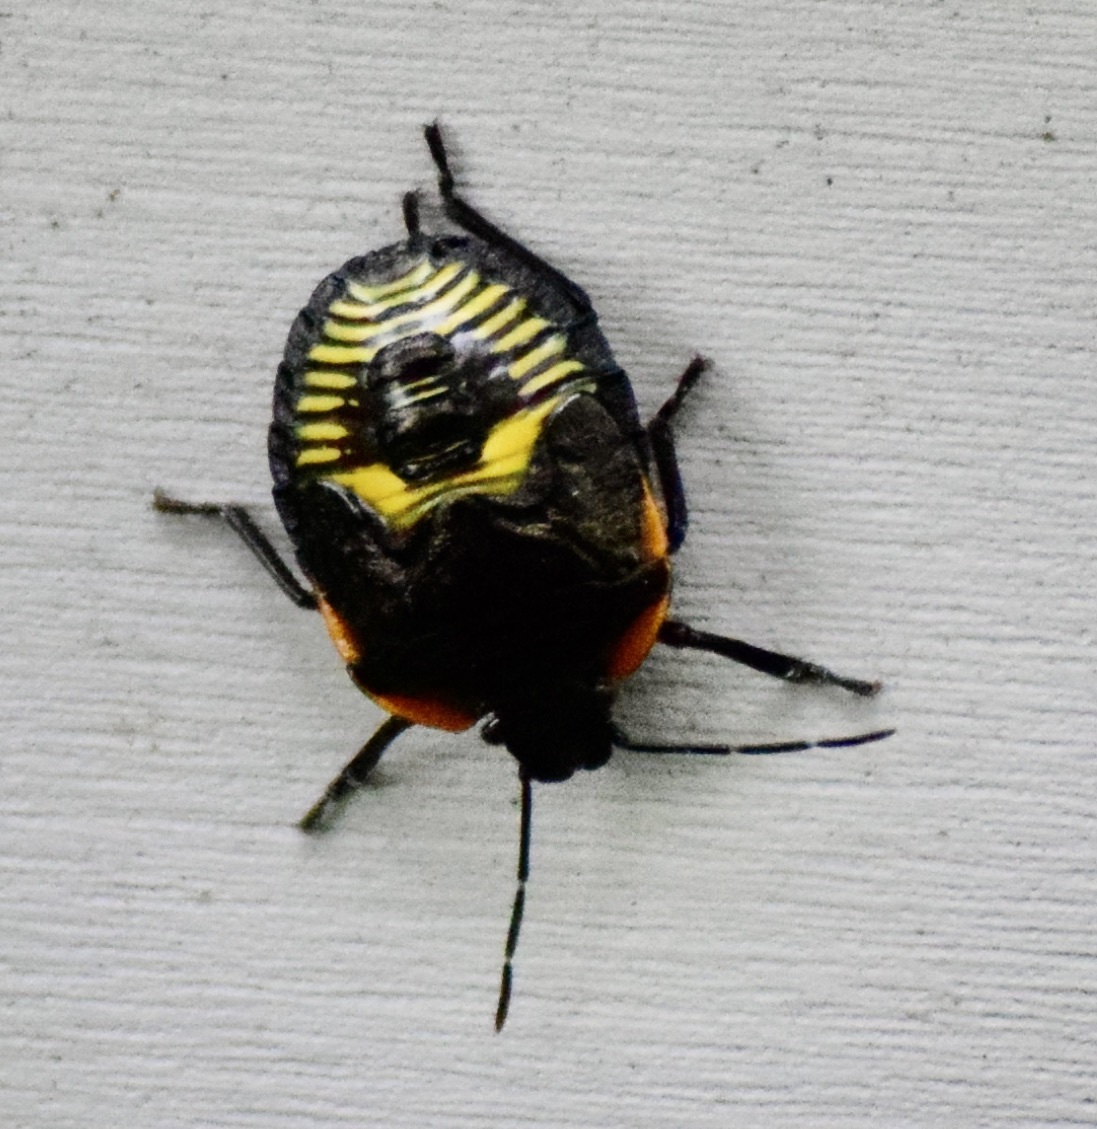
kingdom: Animalia
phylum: Arthropoda
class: Insecta
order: Hemiptera
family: Pentatomidae
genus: Chinavia
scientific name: Chinavia hilaris
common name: Green stink bug
